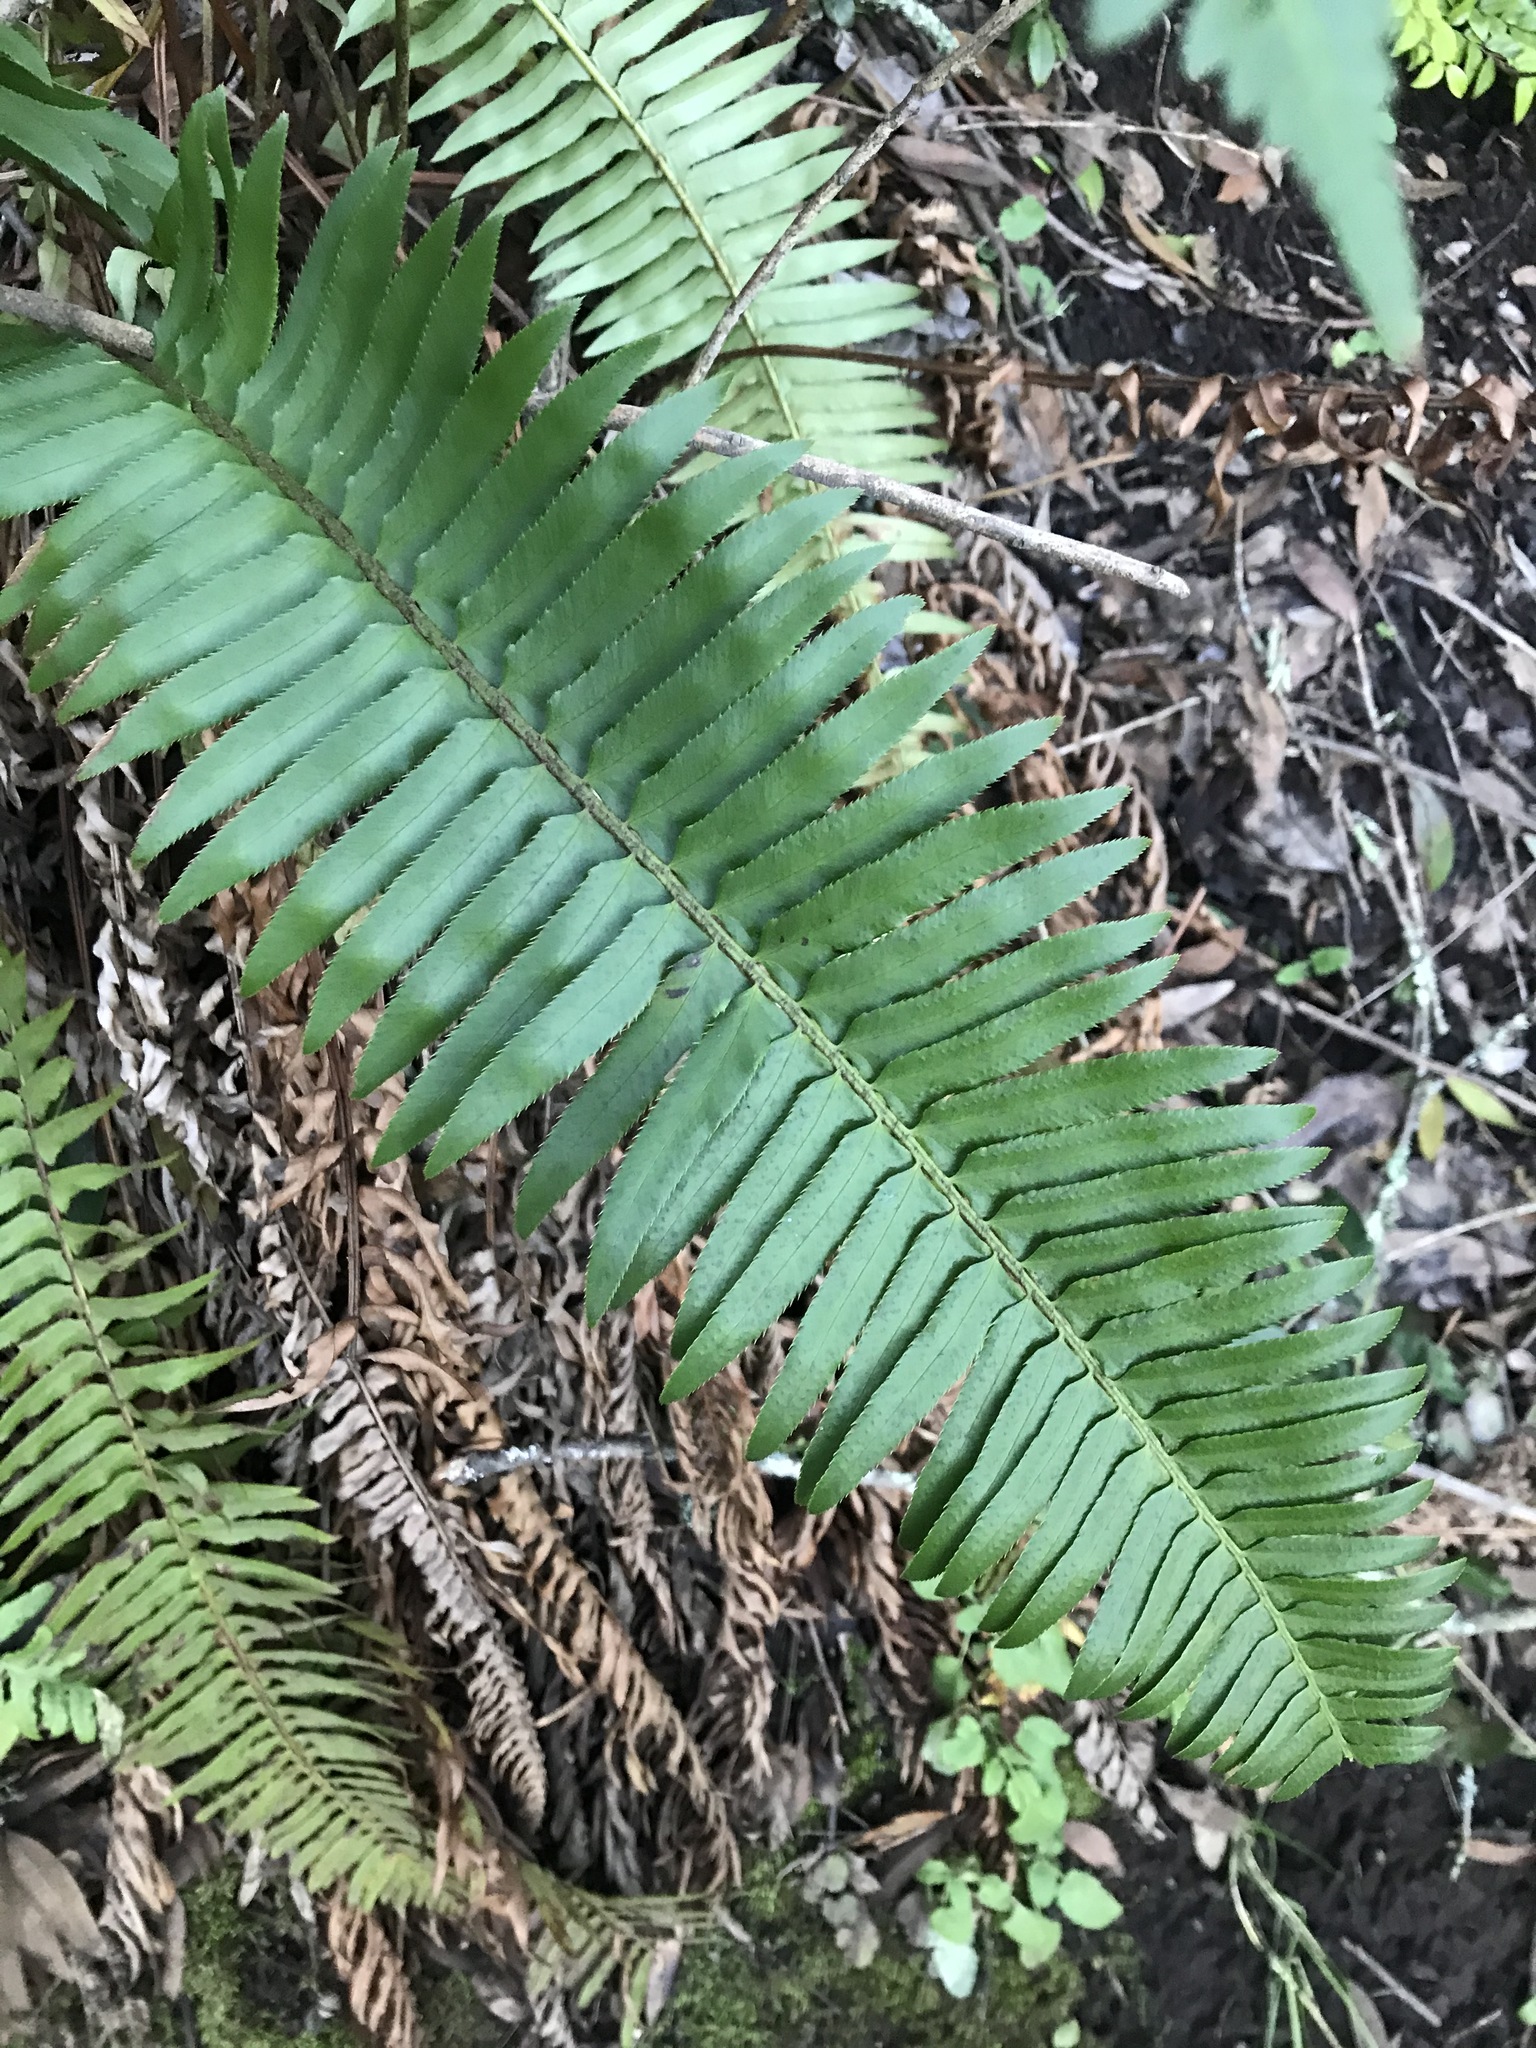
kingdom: Plantae
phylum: Tracheophyta
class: Polypodiopsida
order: Polypodiales
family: Dryopteridaceae
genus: Polystichum
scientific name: Polystichum munitum
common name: Western sword-fern
